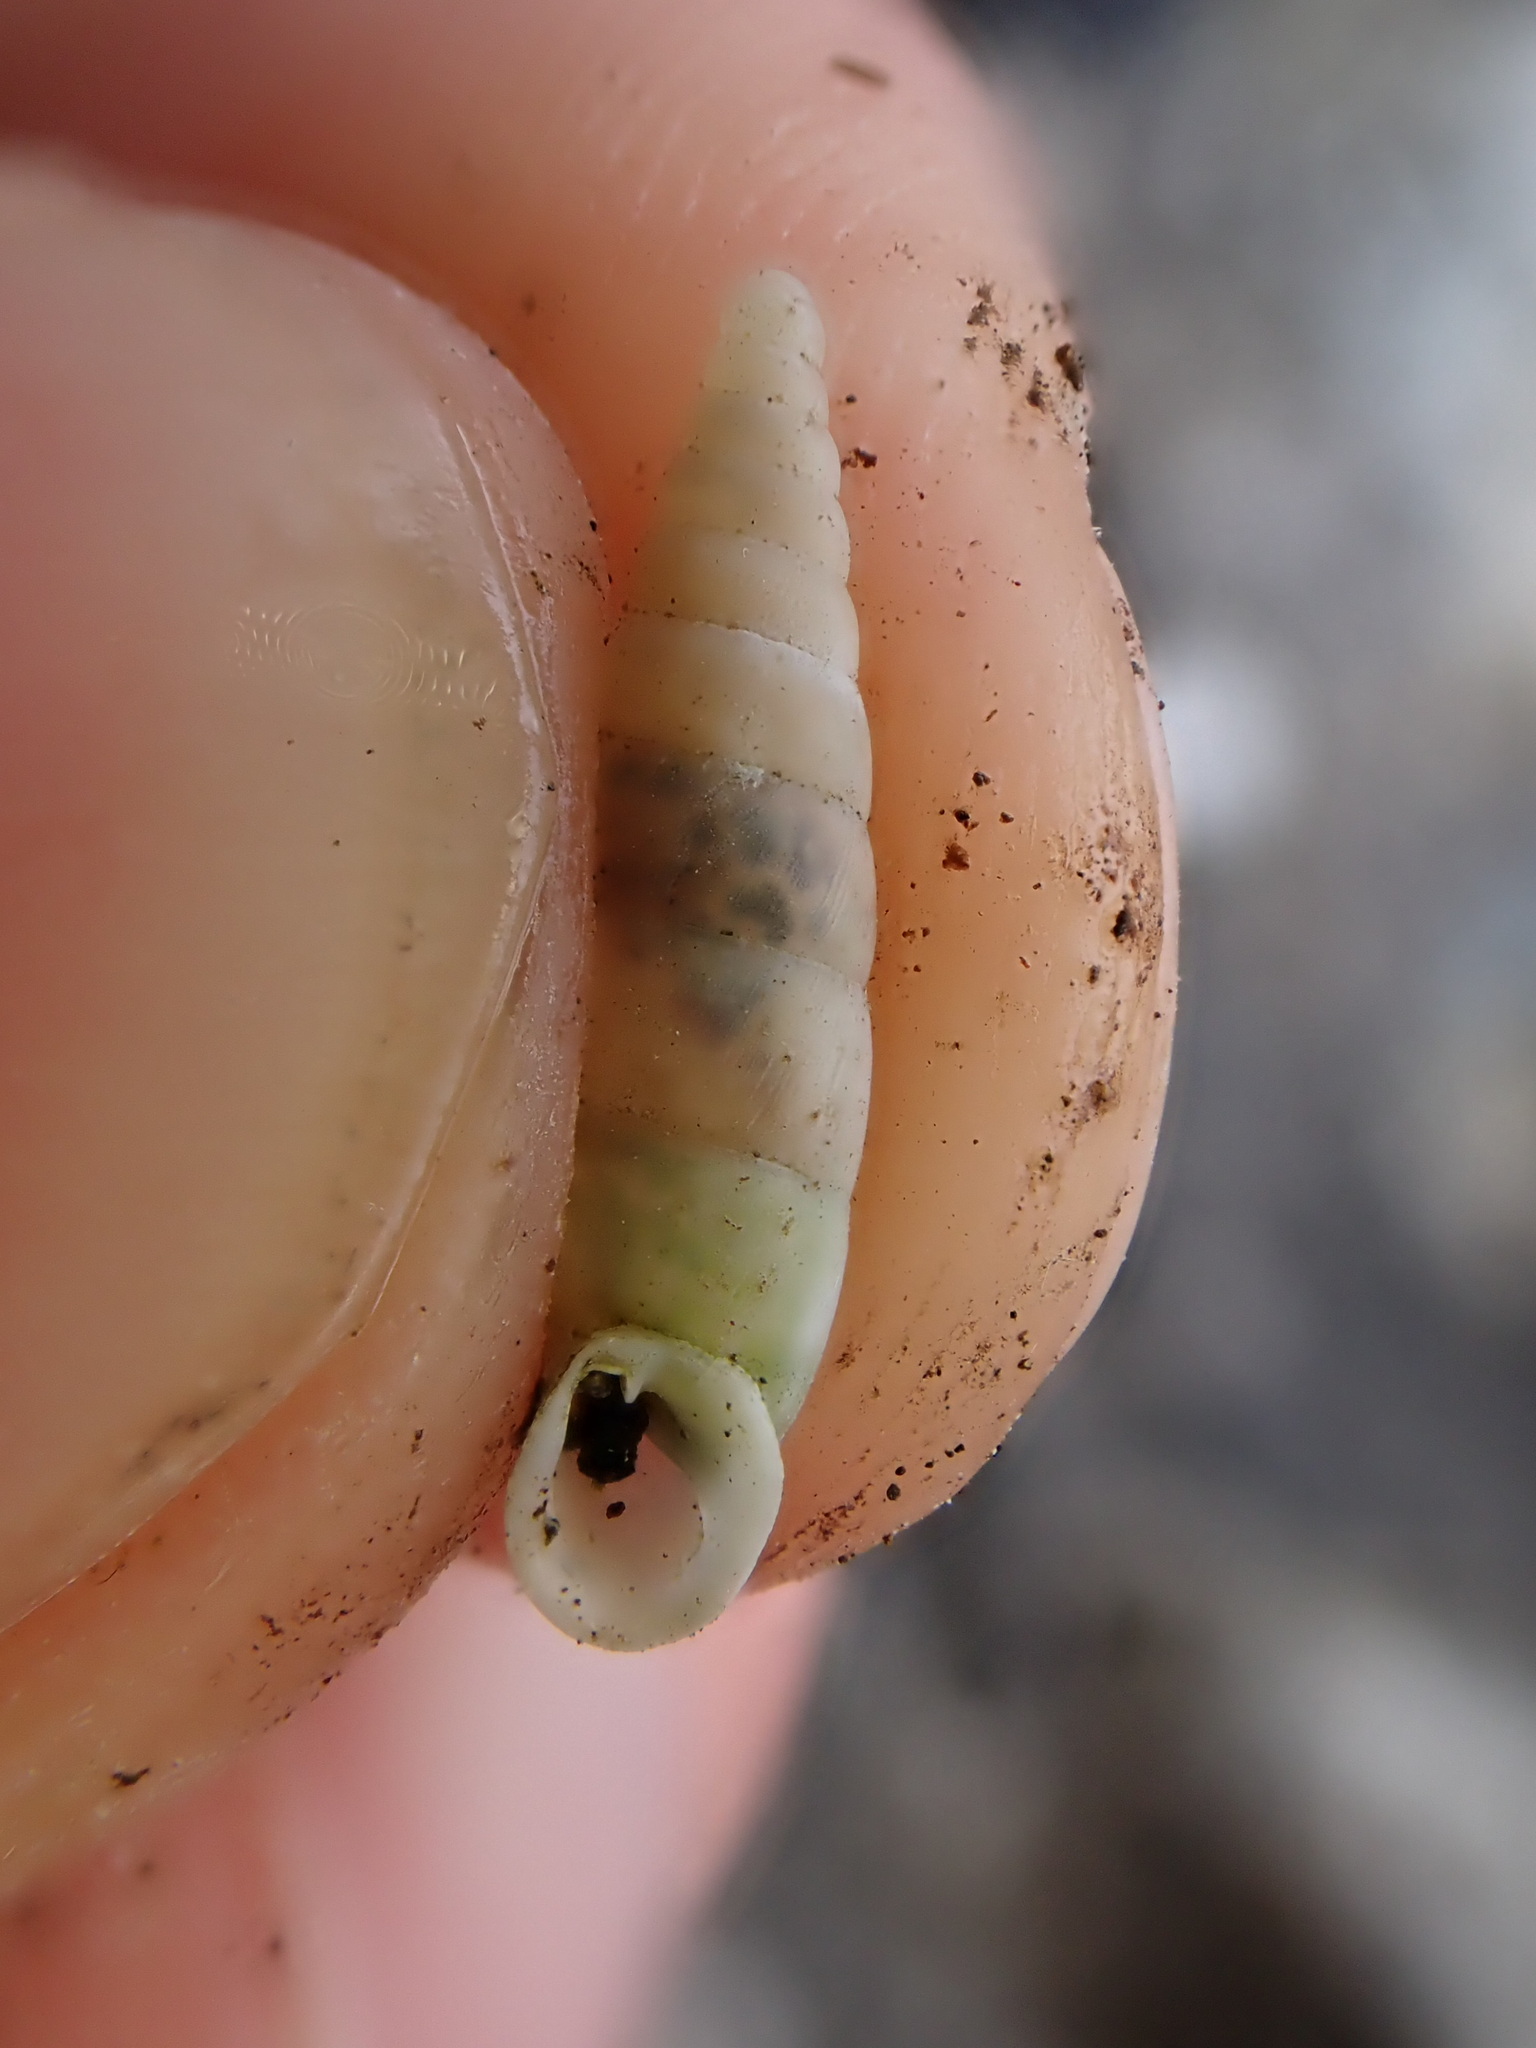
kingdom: Animalia
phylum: Mollusca
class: Gastropoda
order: Stylommatophora
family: Clausiliidae
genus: Papillifera
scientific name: Papillifera solida
